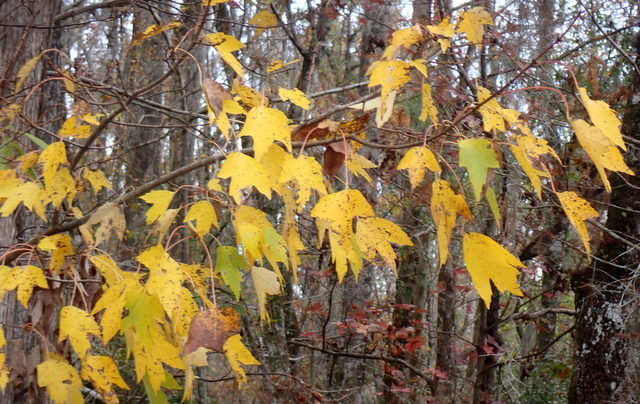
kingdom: Plantae
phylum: Tracheophyta
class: Magnoliopsida
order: Sapindales
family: Sapindaceae
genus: Acer
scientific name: Acer rubrum
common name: Red maple
